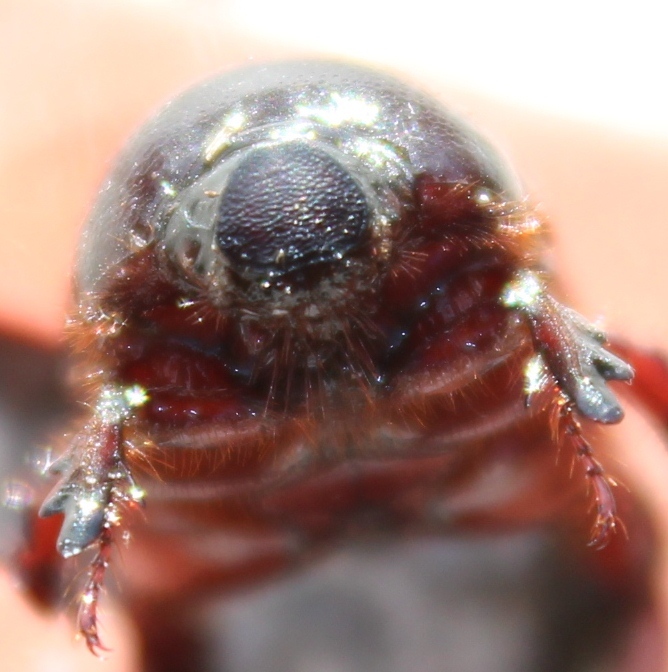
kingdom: Animalia
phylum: Arthropoda
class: Insecta
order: Coleoptera
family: Scarabaeidae
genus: Temnorhynchus
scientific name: Temnorhynchus retusus
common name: Plate-faced beetle
